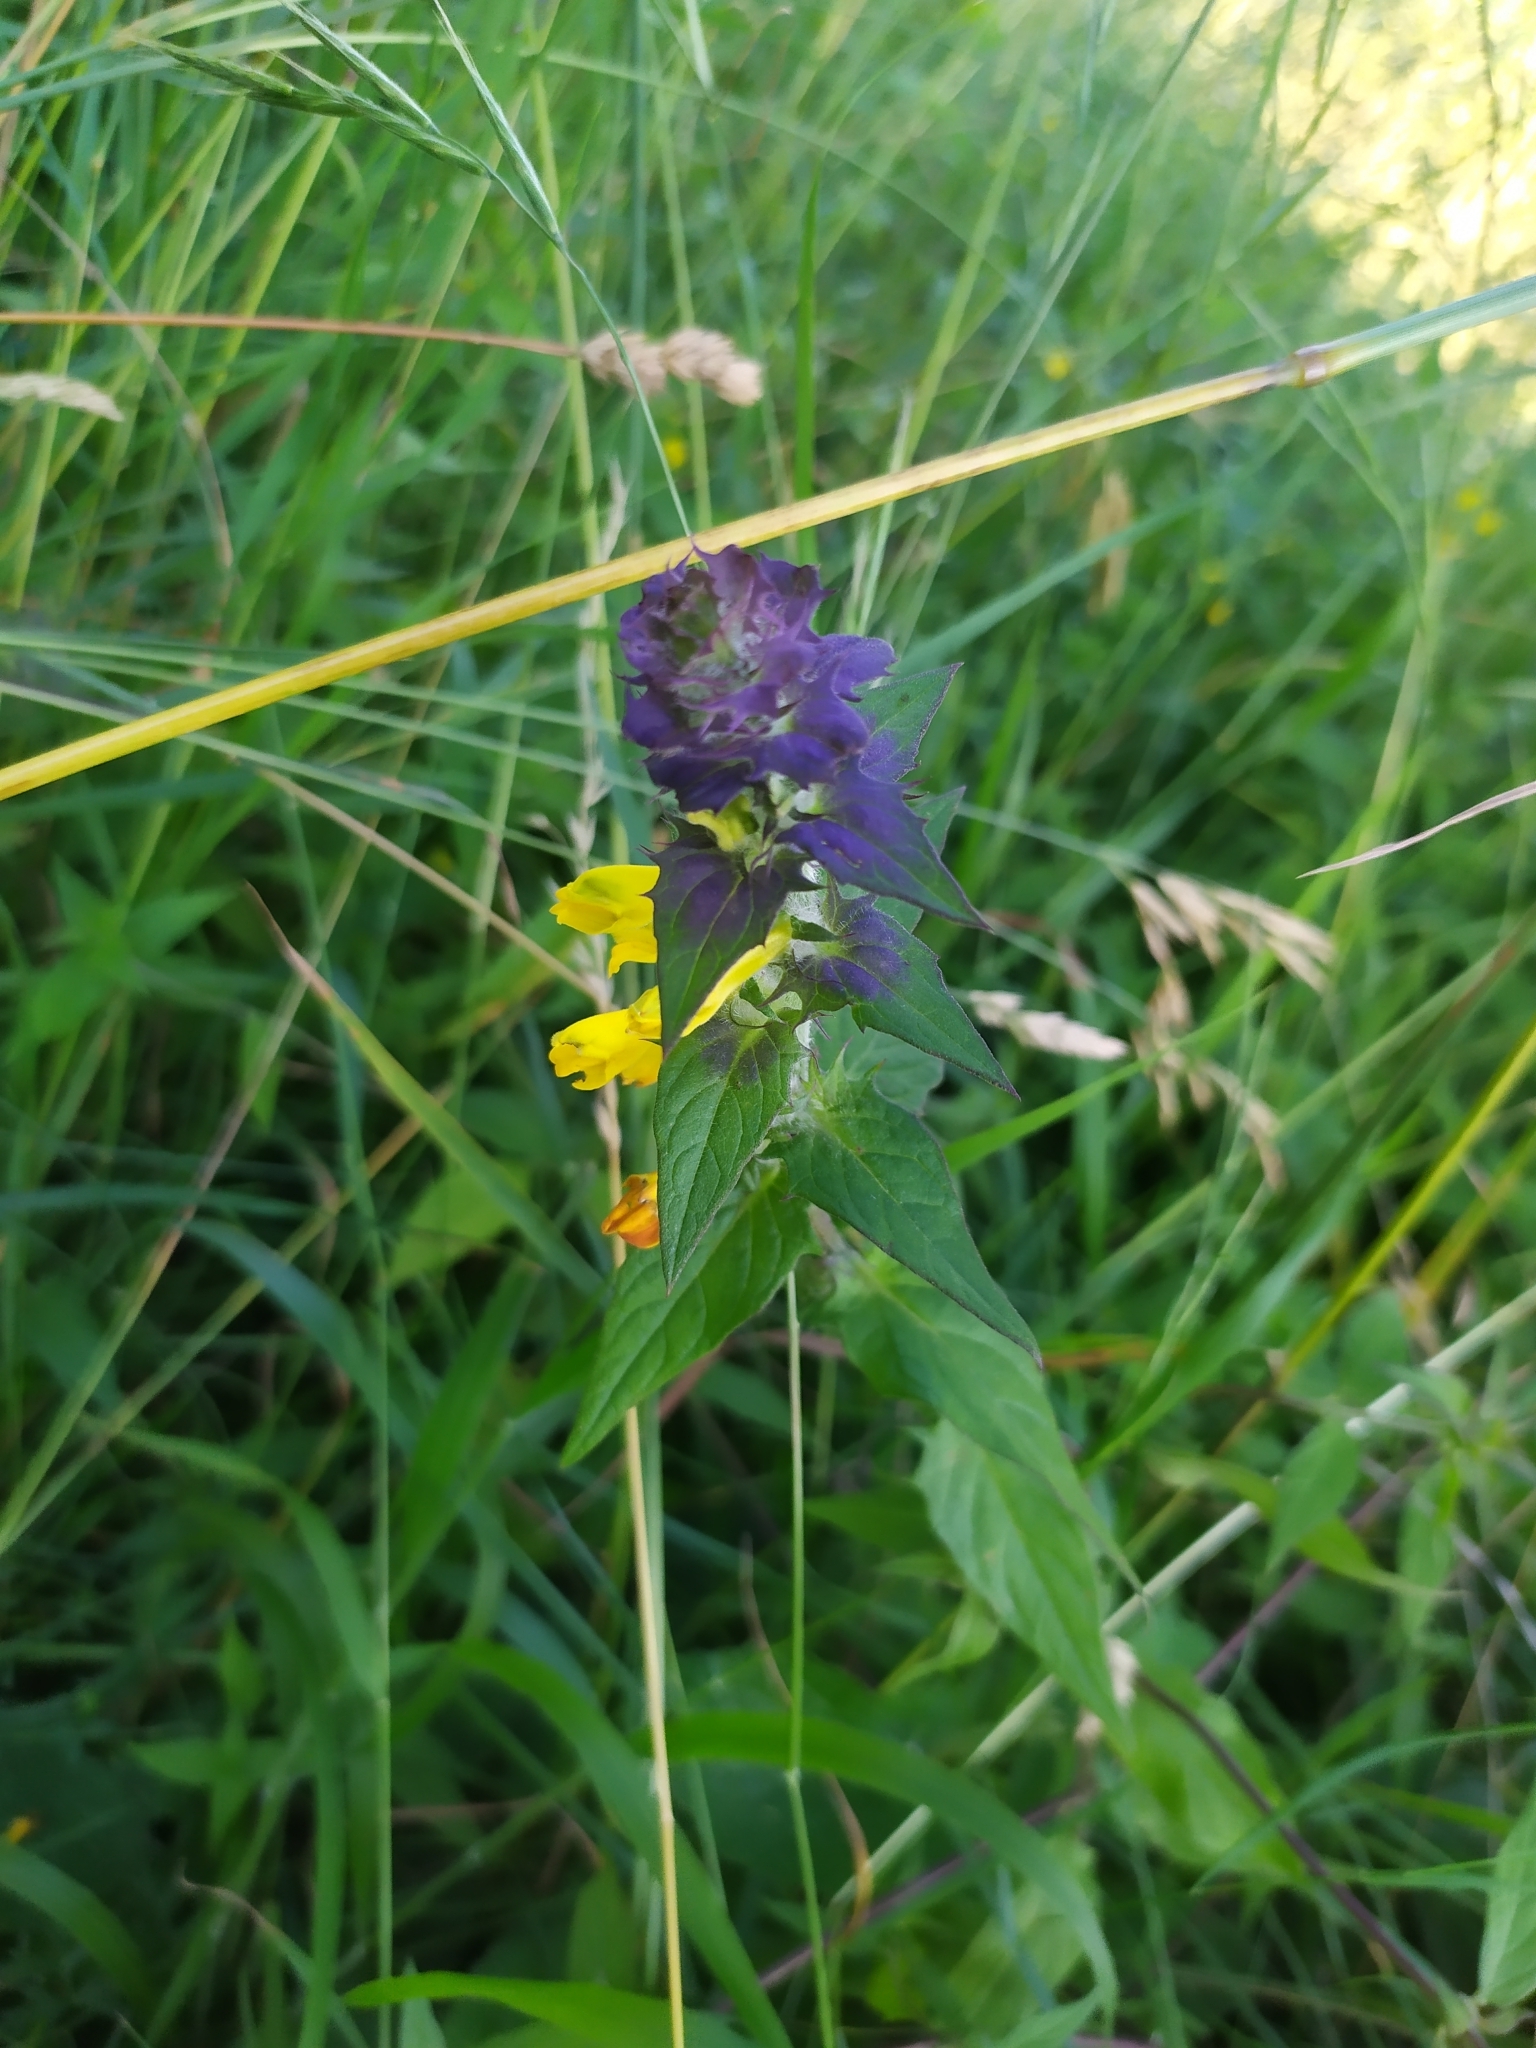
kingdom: Plantae
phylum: Tracheophyta
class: Magnoliopsida
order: Lamiales
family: Orobanchaceae
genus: Melampyrum
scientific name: Melampyrum nemorosum
